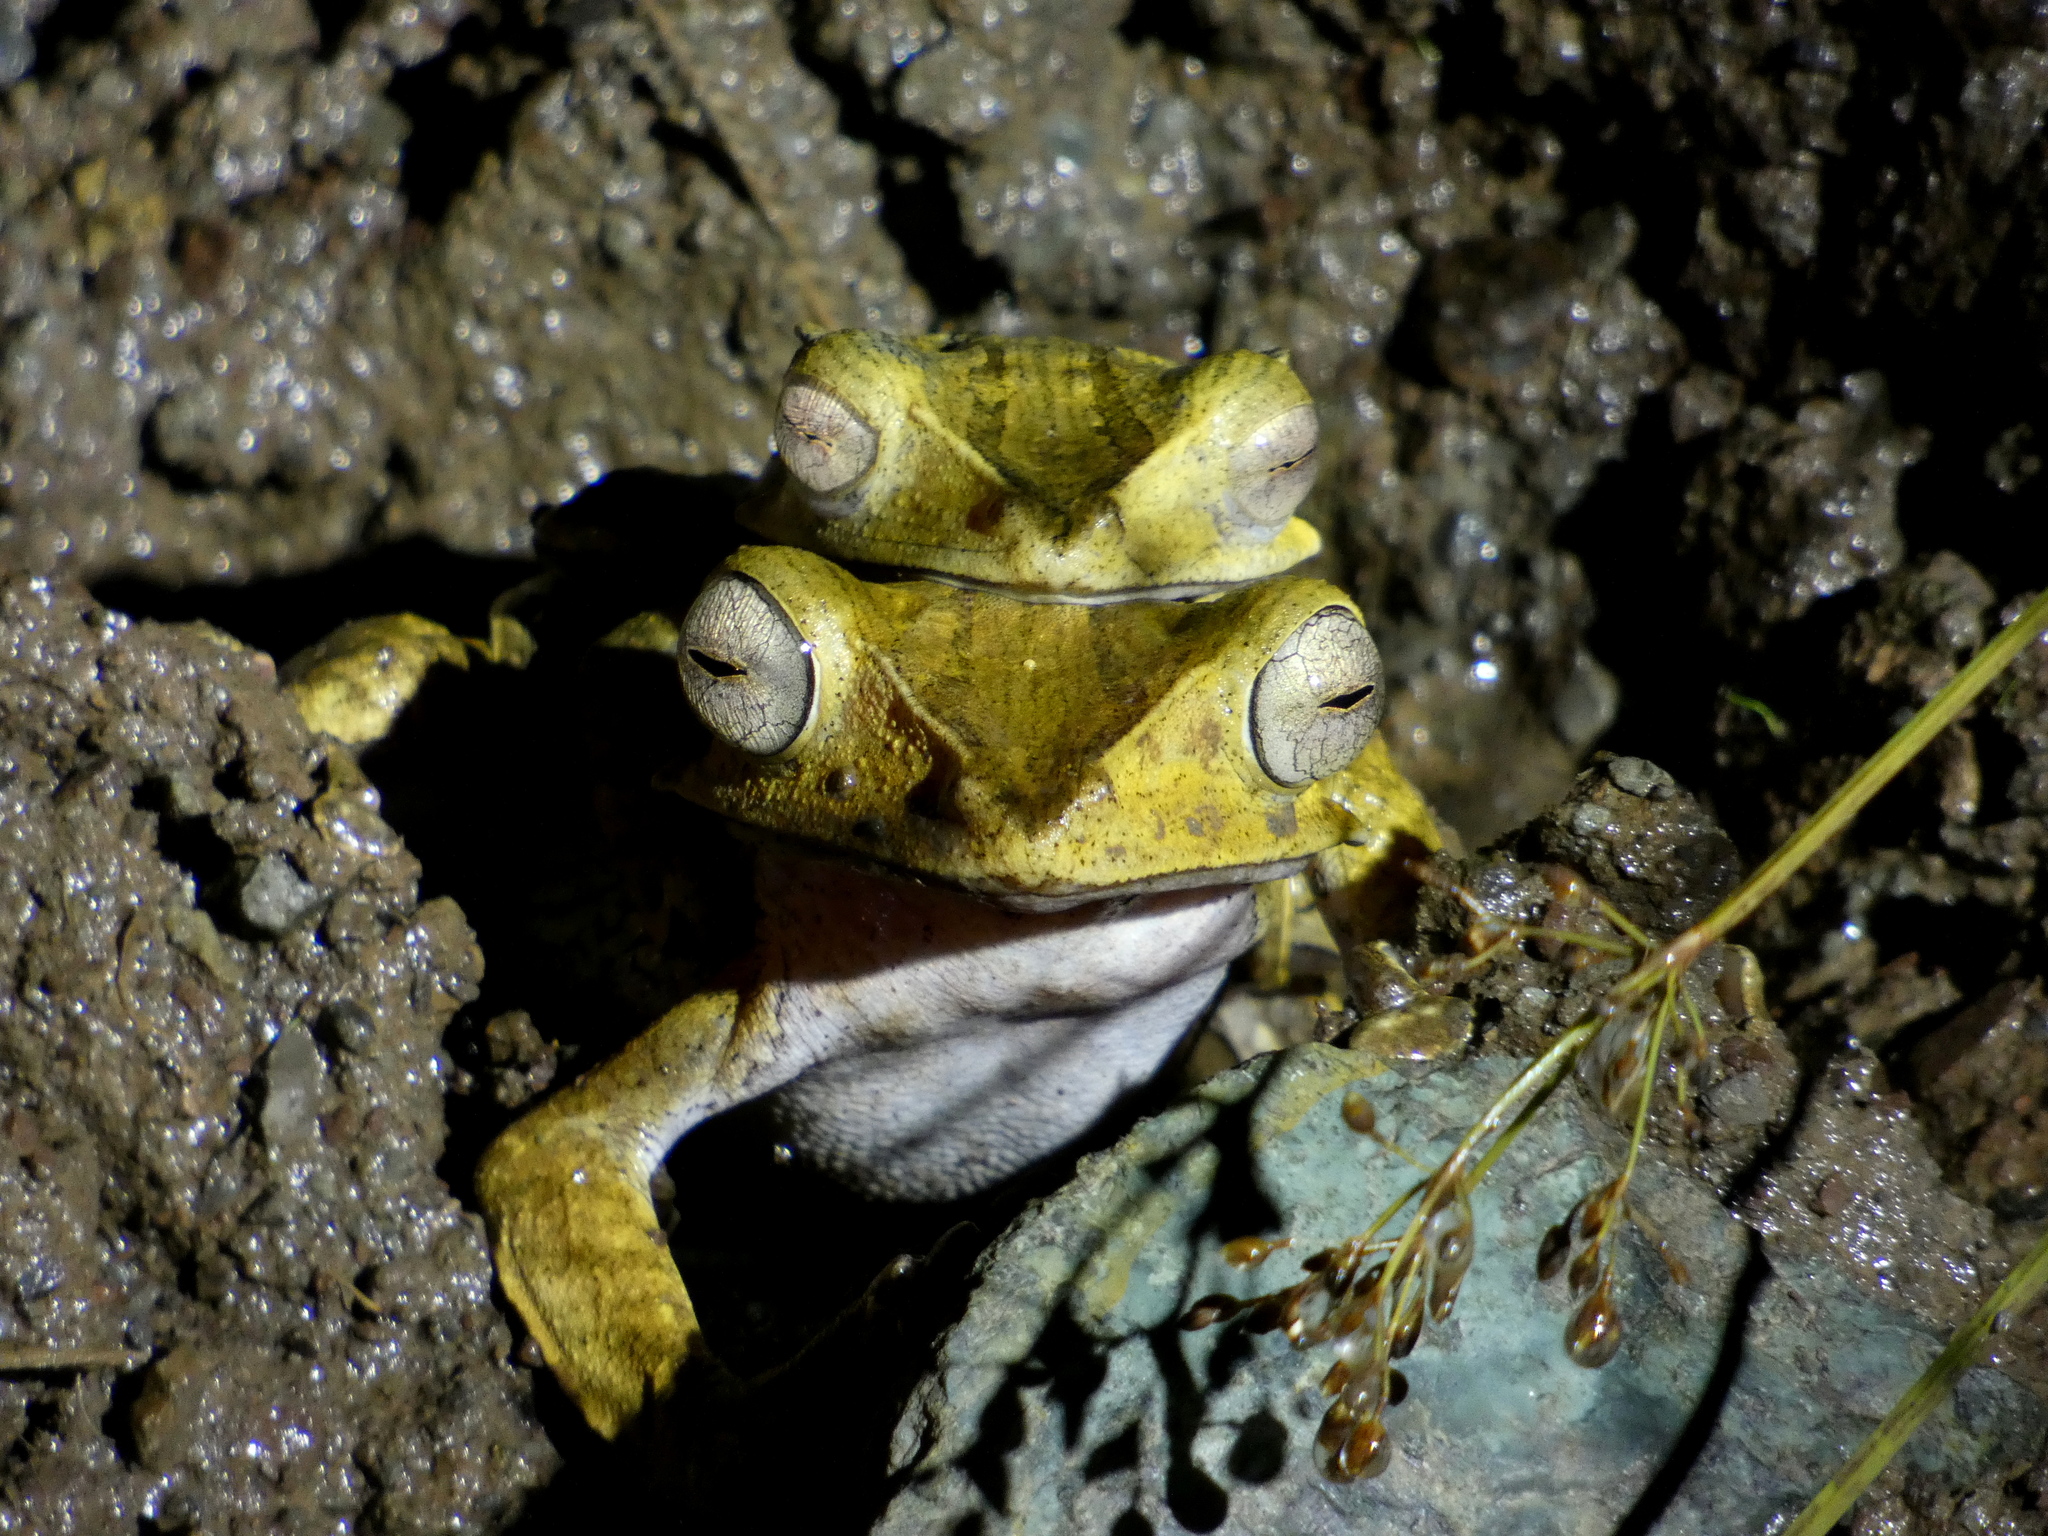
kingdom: Animalia
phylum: Chordata
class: Amphibia
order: Anura
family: Rhacophoridae
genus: Polypedates
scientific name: Polypedates otilophus
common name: File-eared tree frog
